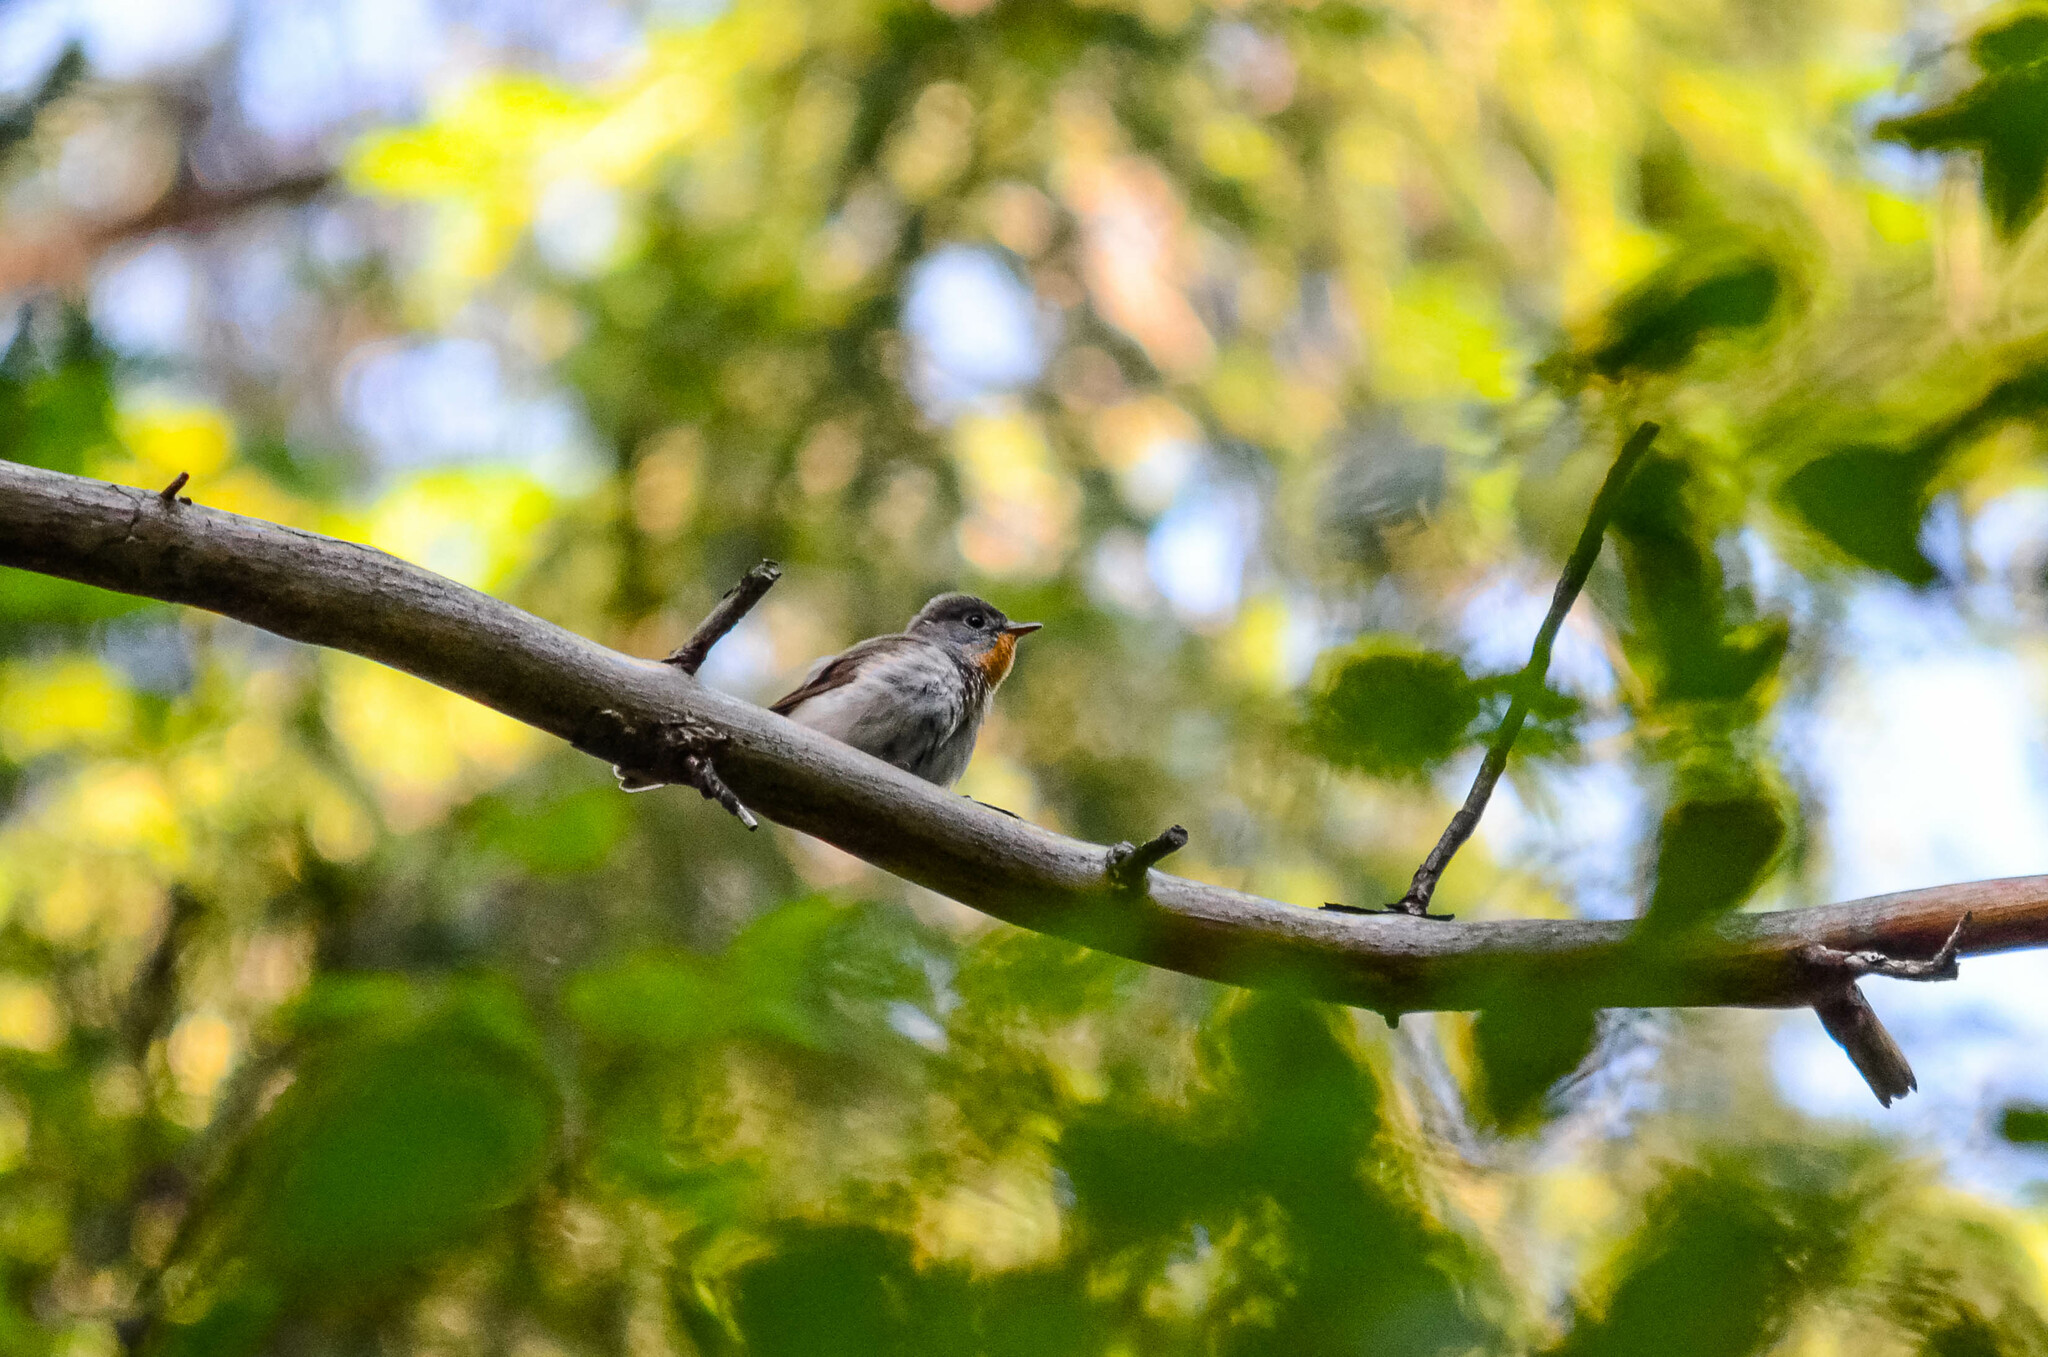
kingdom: Animalia
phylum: Chordata
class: Aves
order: Passeriformes
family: Muscicapidae
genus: Ficedula
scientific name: Ficedula parva
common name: Red-breasted flycatcher
